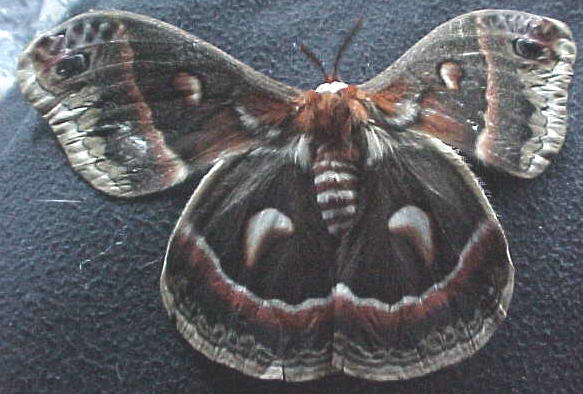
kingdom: Animalia
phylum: Arthropoda
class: Insecta
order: Lepidoptera
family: Saturniidae
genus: Hyalophora
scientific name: Hyalophora cecropia
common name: Cecropia silkmoth
